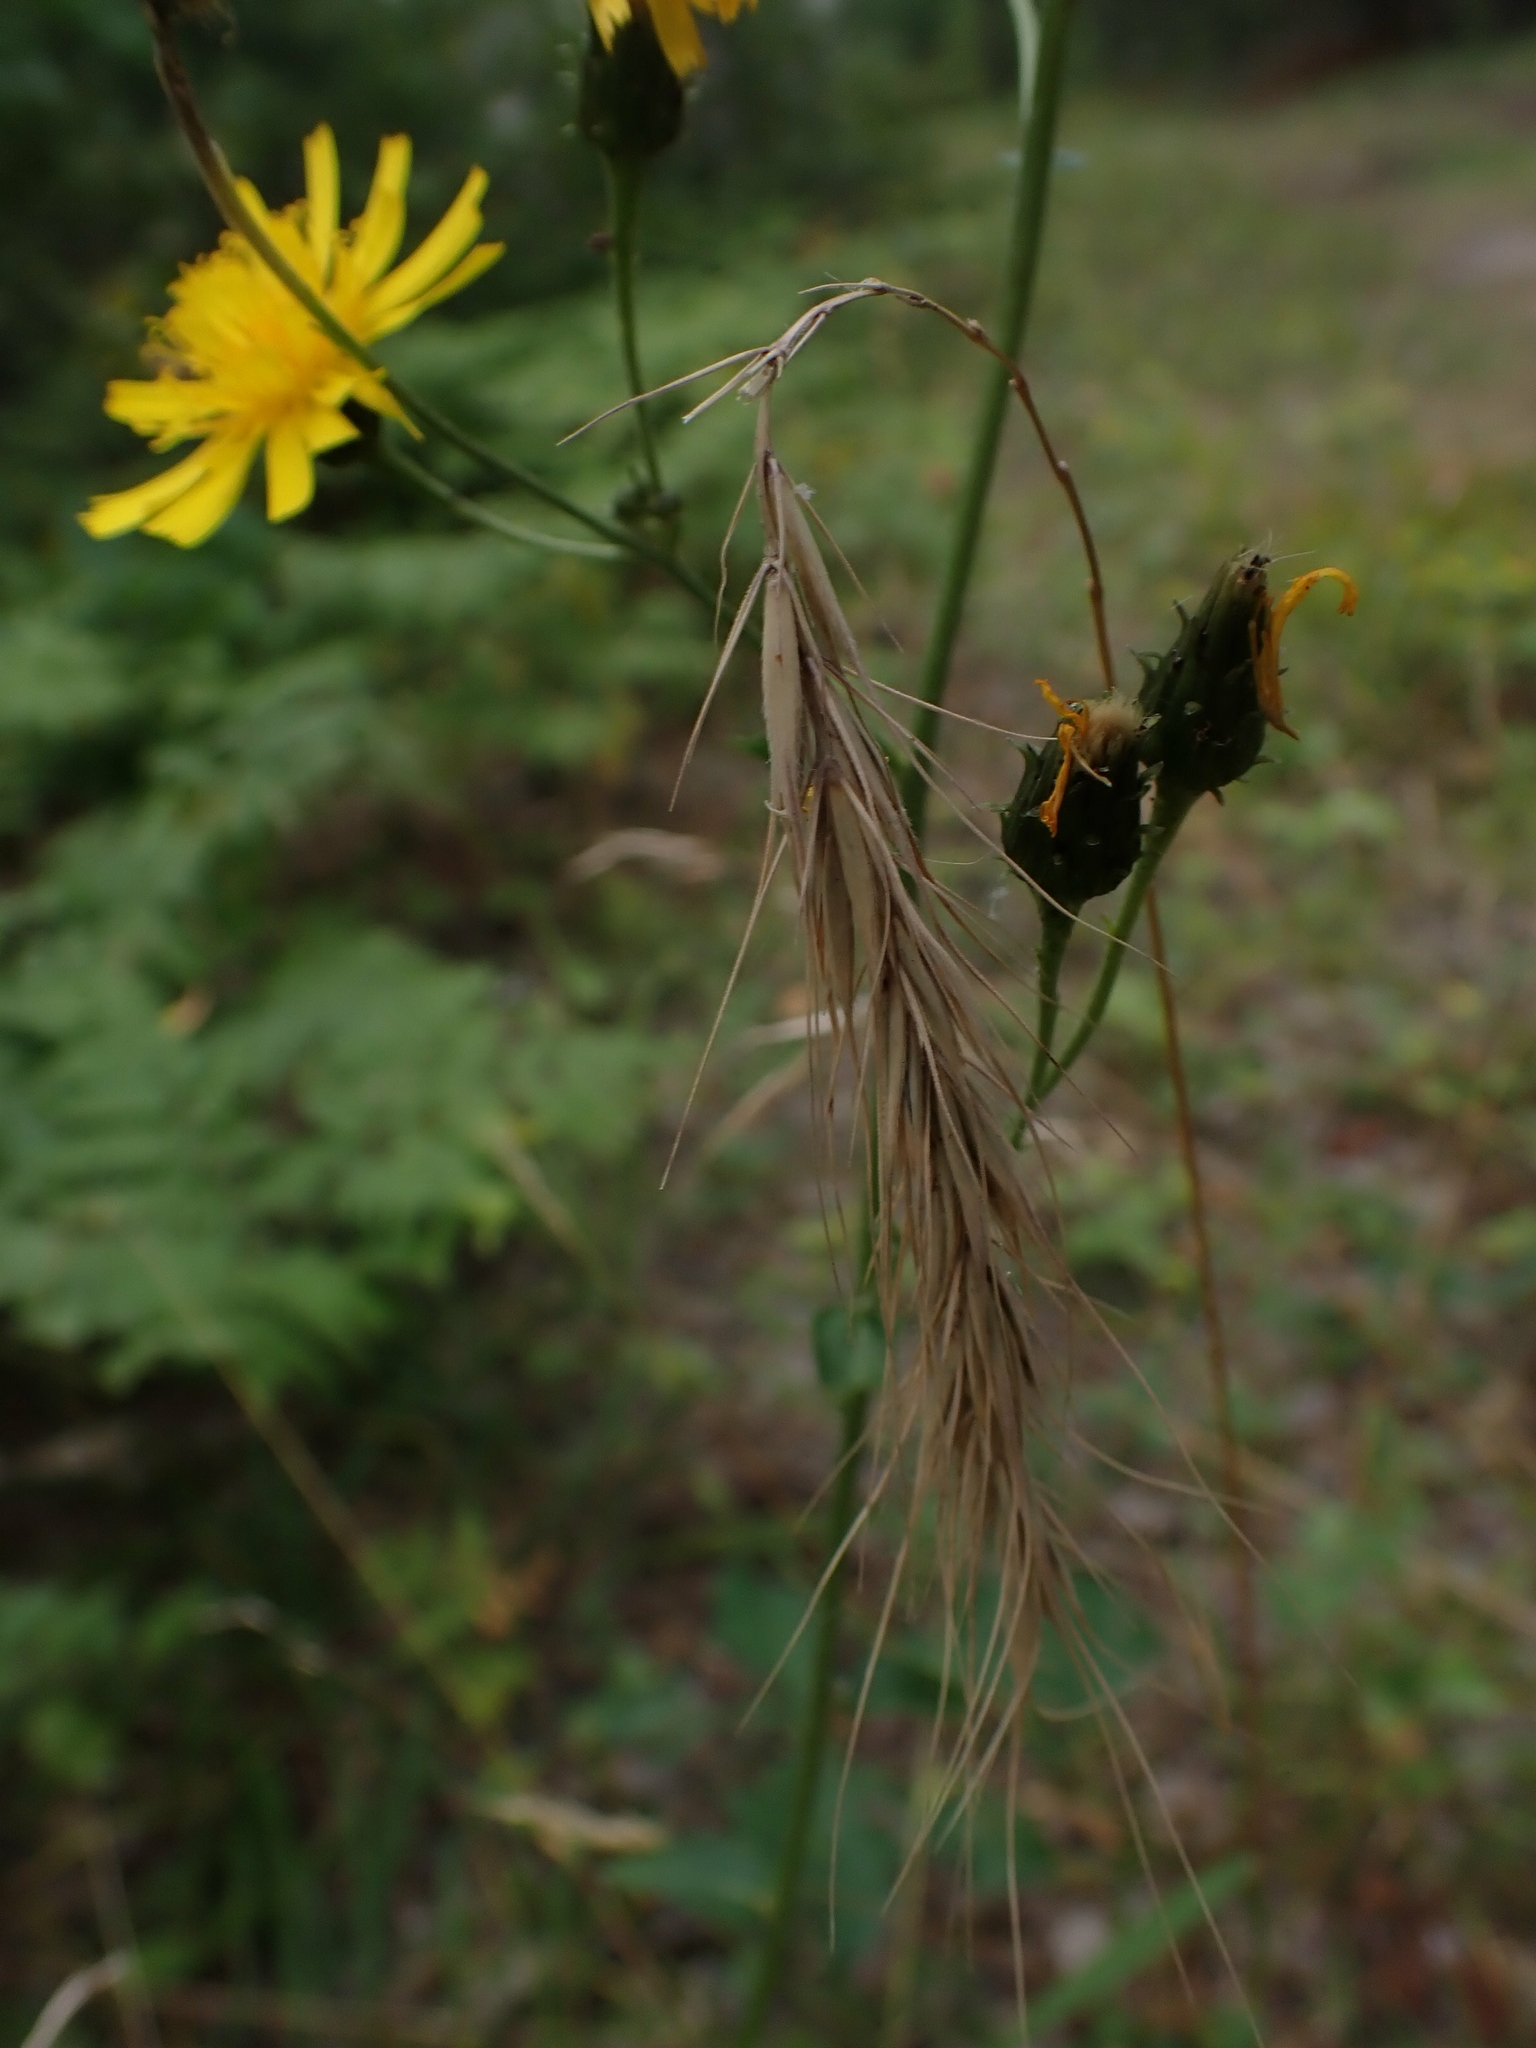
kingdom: Plantae
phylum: Tracheophyta
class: Liliopsida
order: Poales
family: Poaceae
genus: Elymus
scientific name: Elymus canadensis
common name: Canada wild rye
